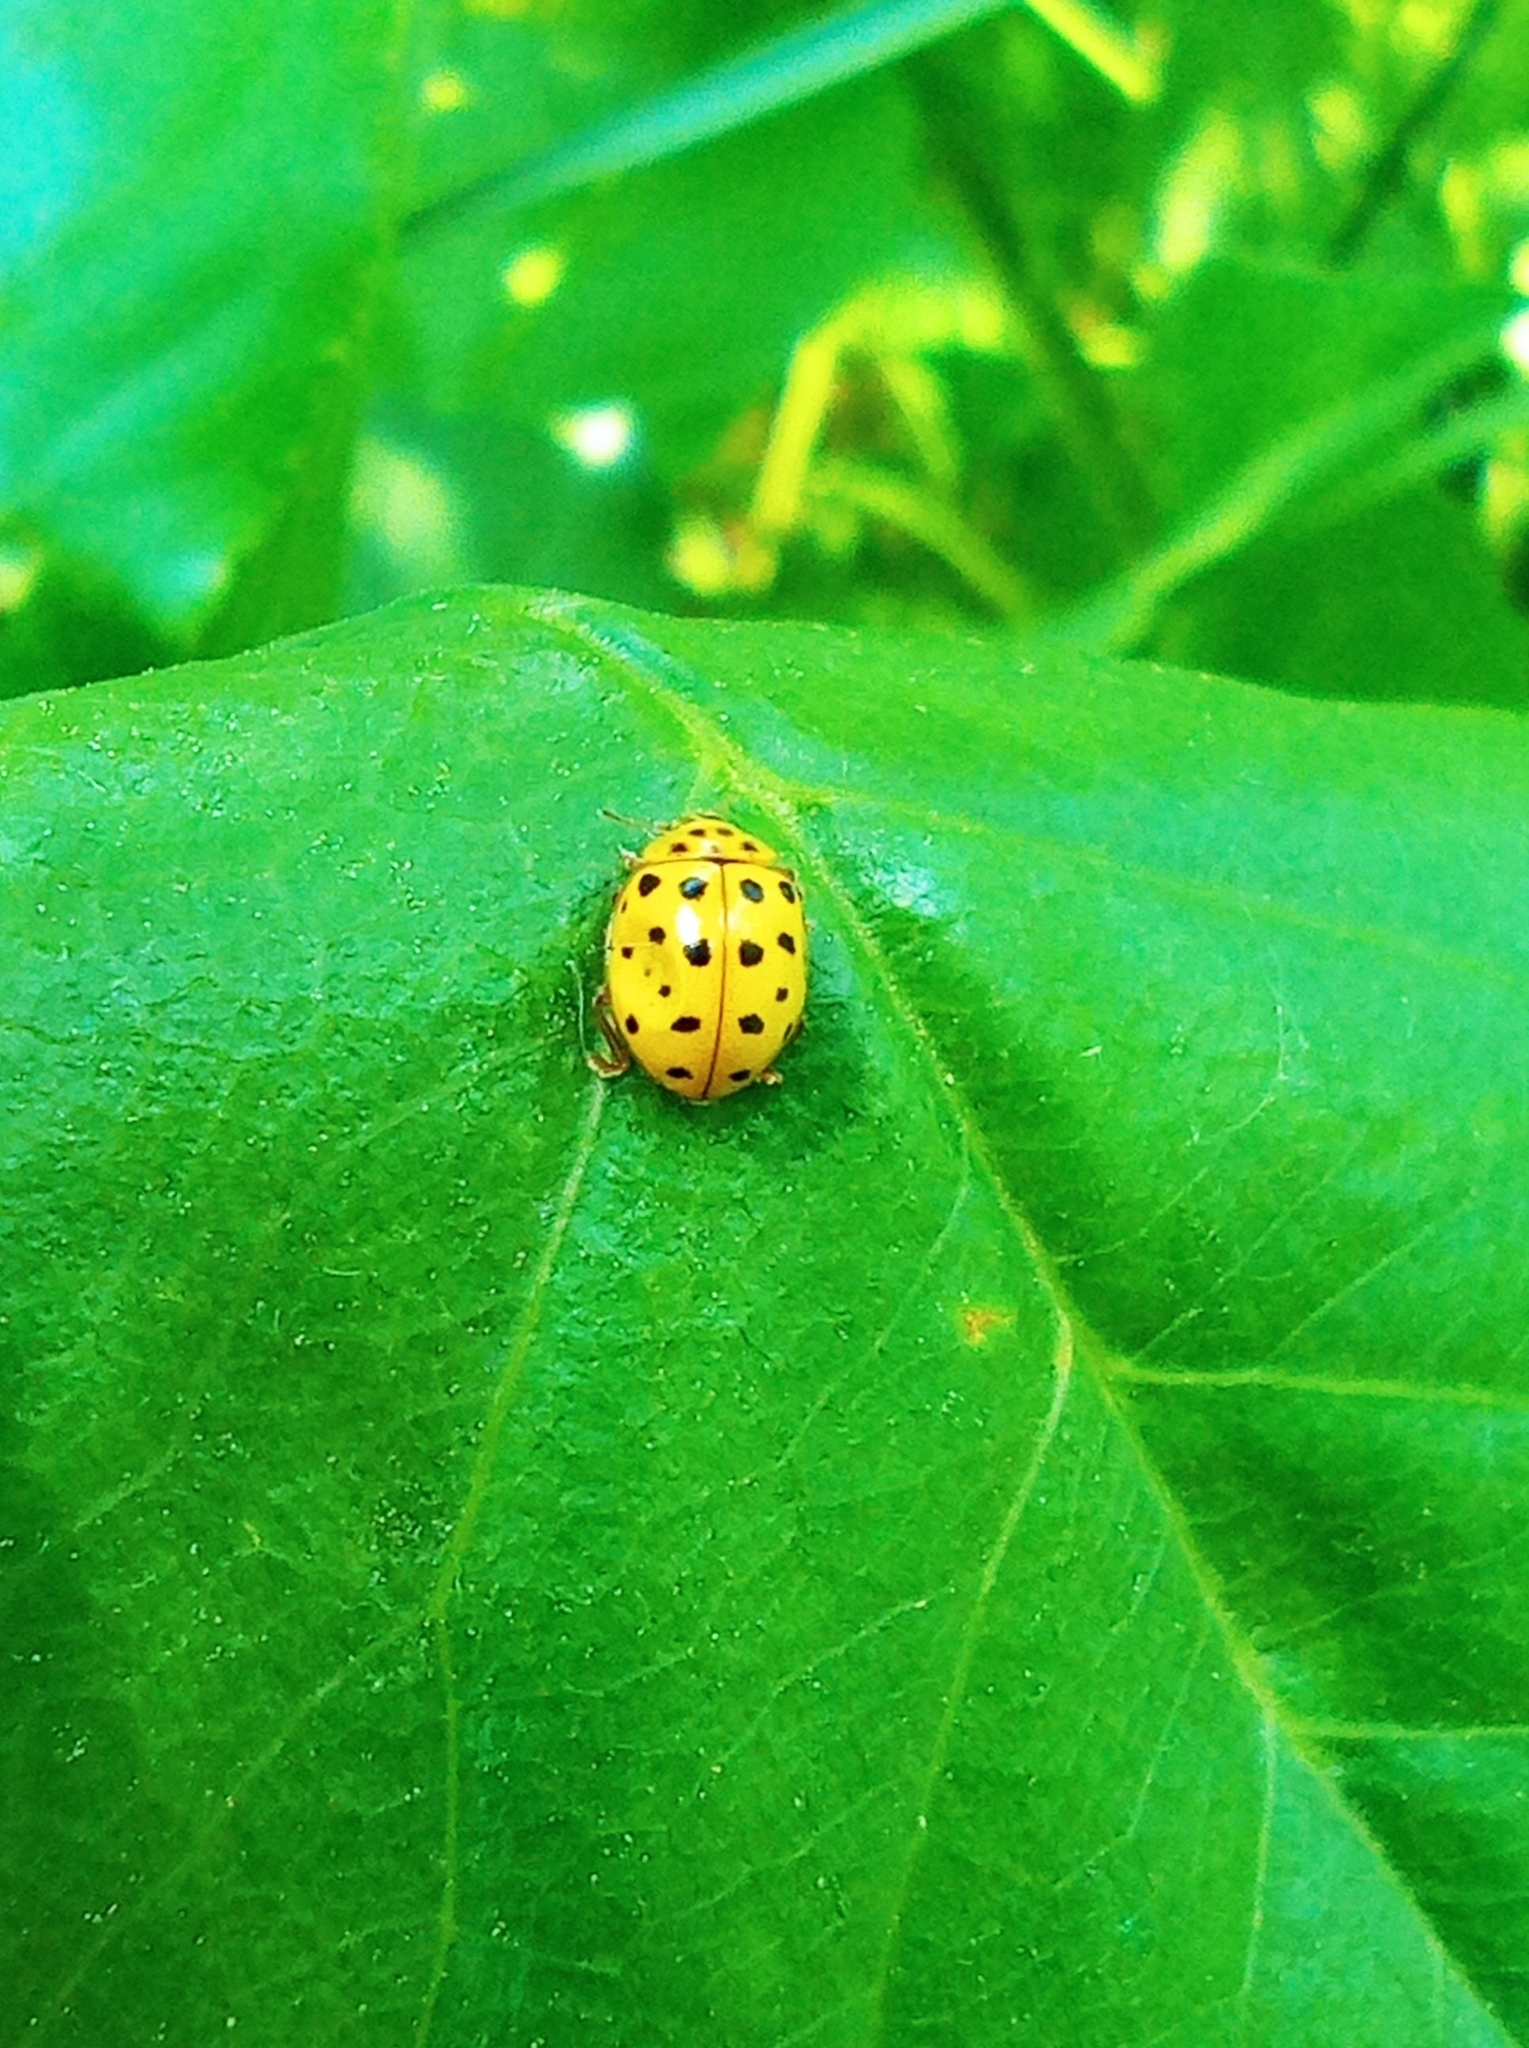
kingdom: Animalia
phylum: Arthropoda
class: Insecta
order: Coleoptera
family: Coccinellidae
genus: Psyllobora
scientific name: Psyllobora vigintiduopunctata
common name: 22-spot ladybird
